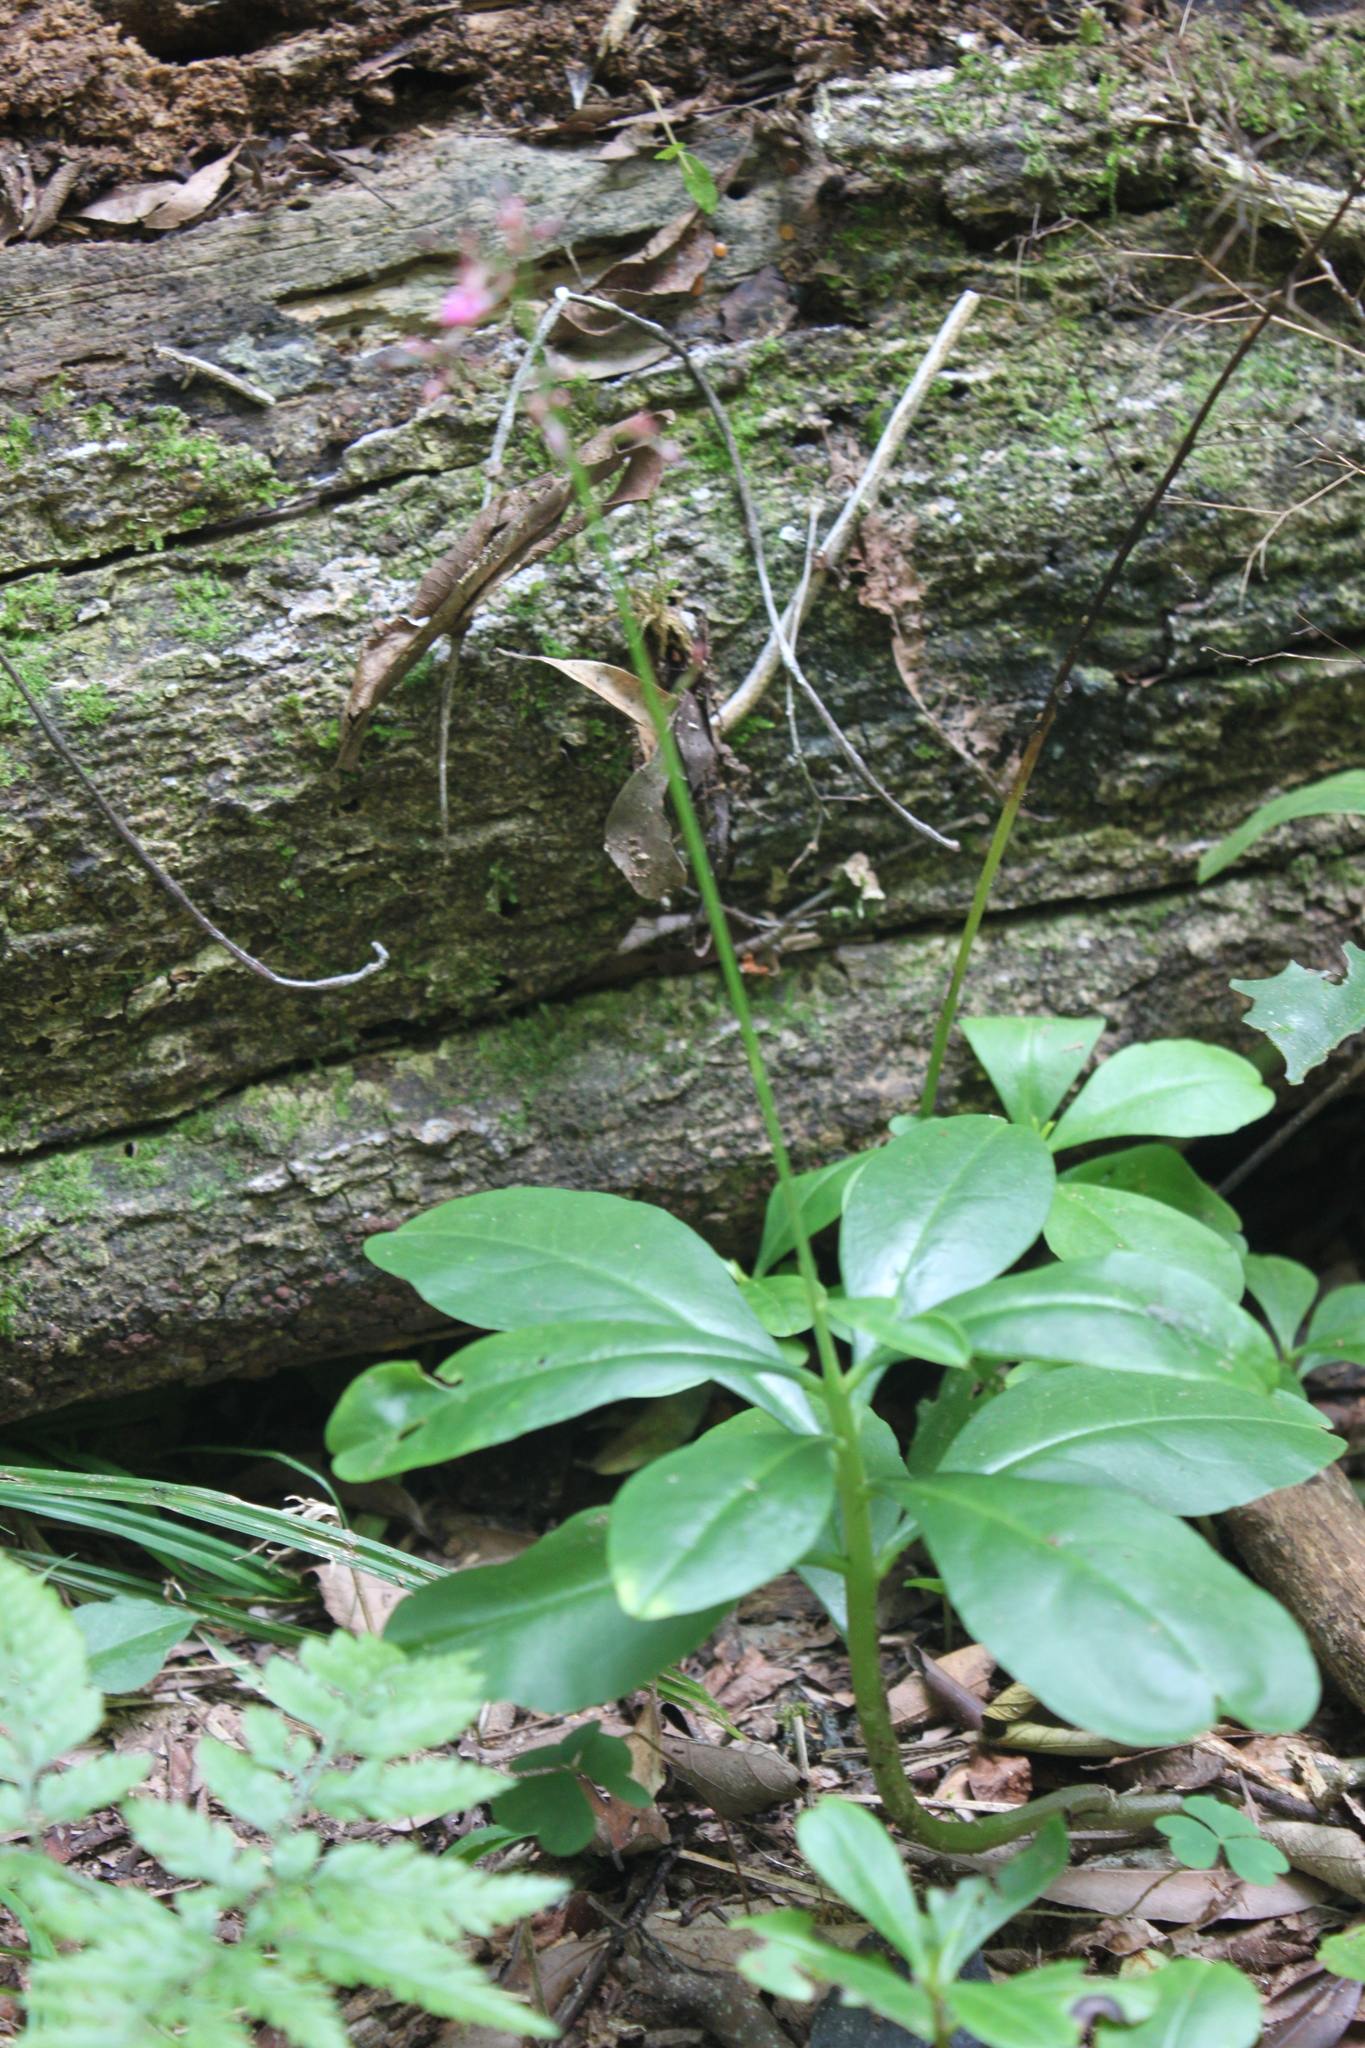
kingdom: Plantae
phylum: Tracheophyta
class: Magnoliopsida
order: Caryophyllales
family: Talinaceae
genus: Talinum
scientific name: Talinum paniculatum
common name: Jewels of opar
